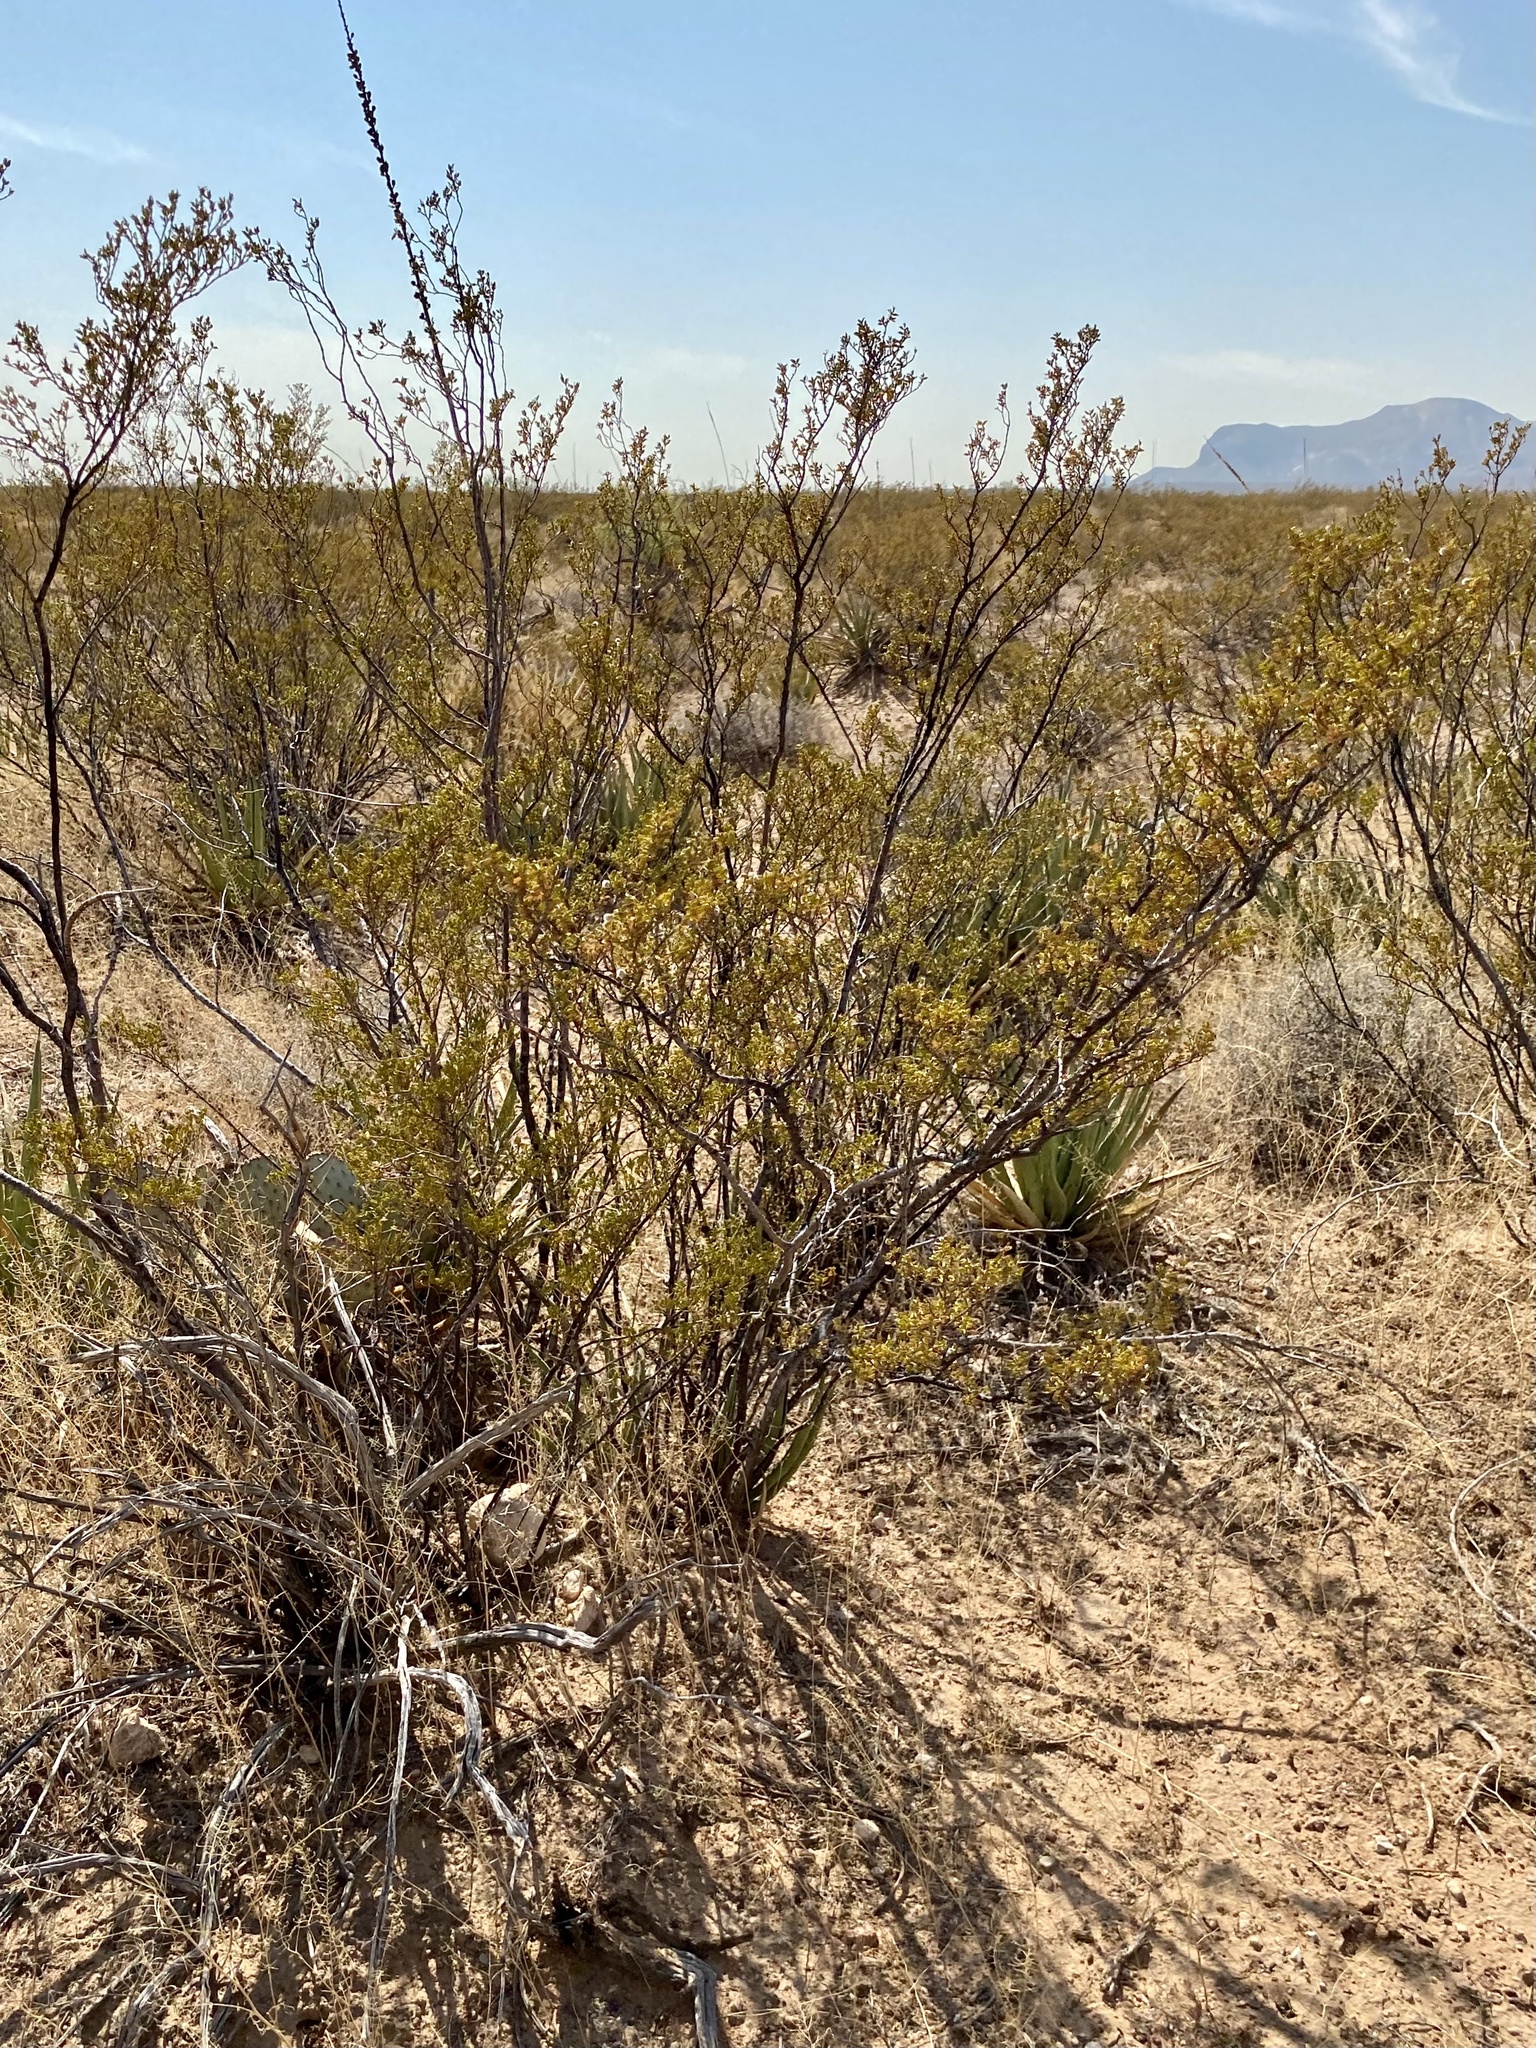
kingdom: Plantae
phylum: Tracheophyta
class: Magnoliopsida
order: Zygophyllales
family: Zygophyllaceae
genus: Larrea
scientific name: Larrea tridentata
